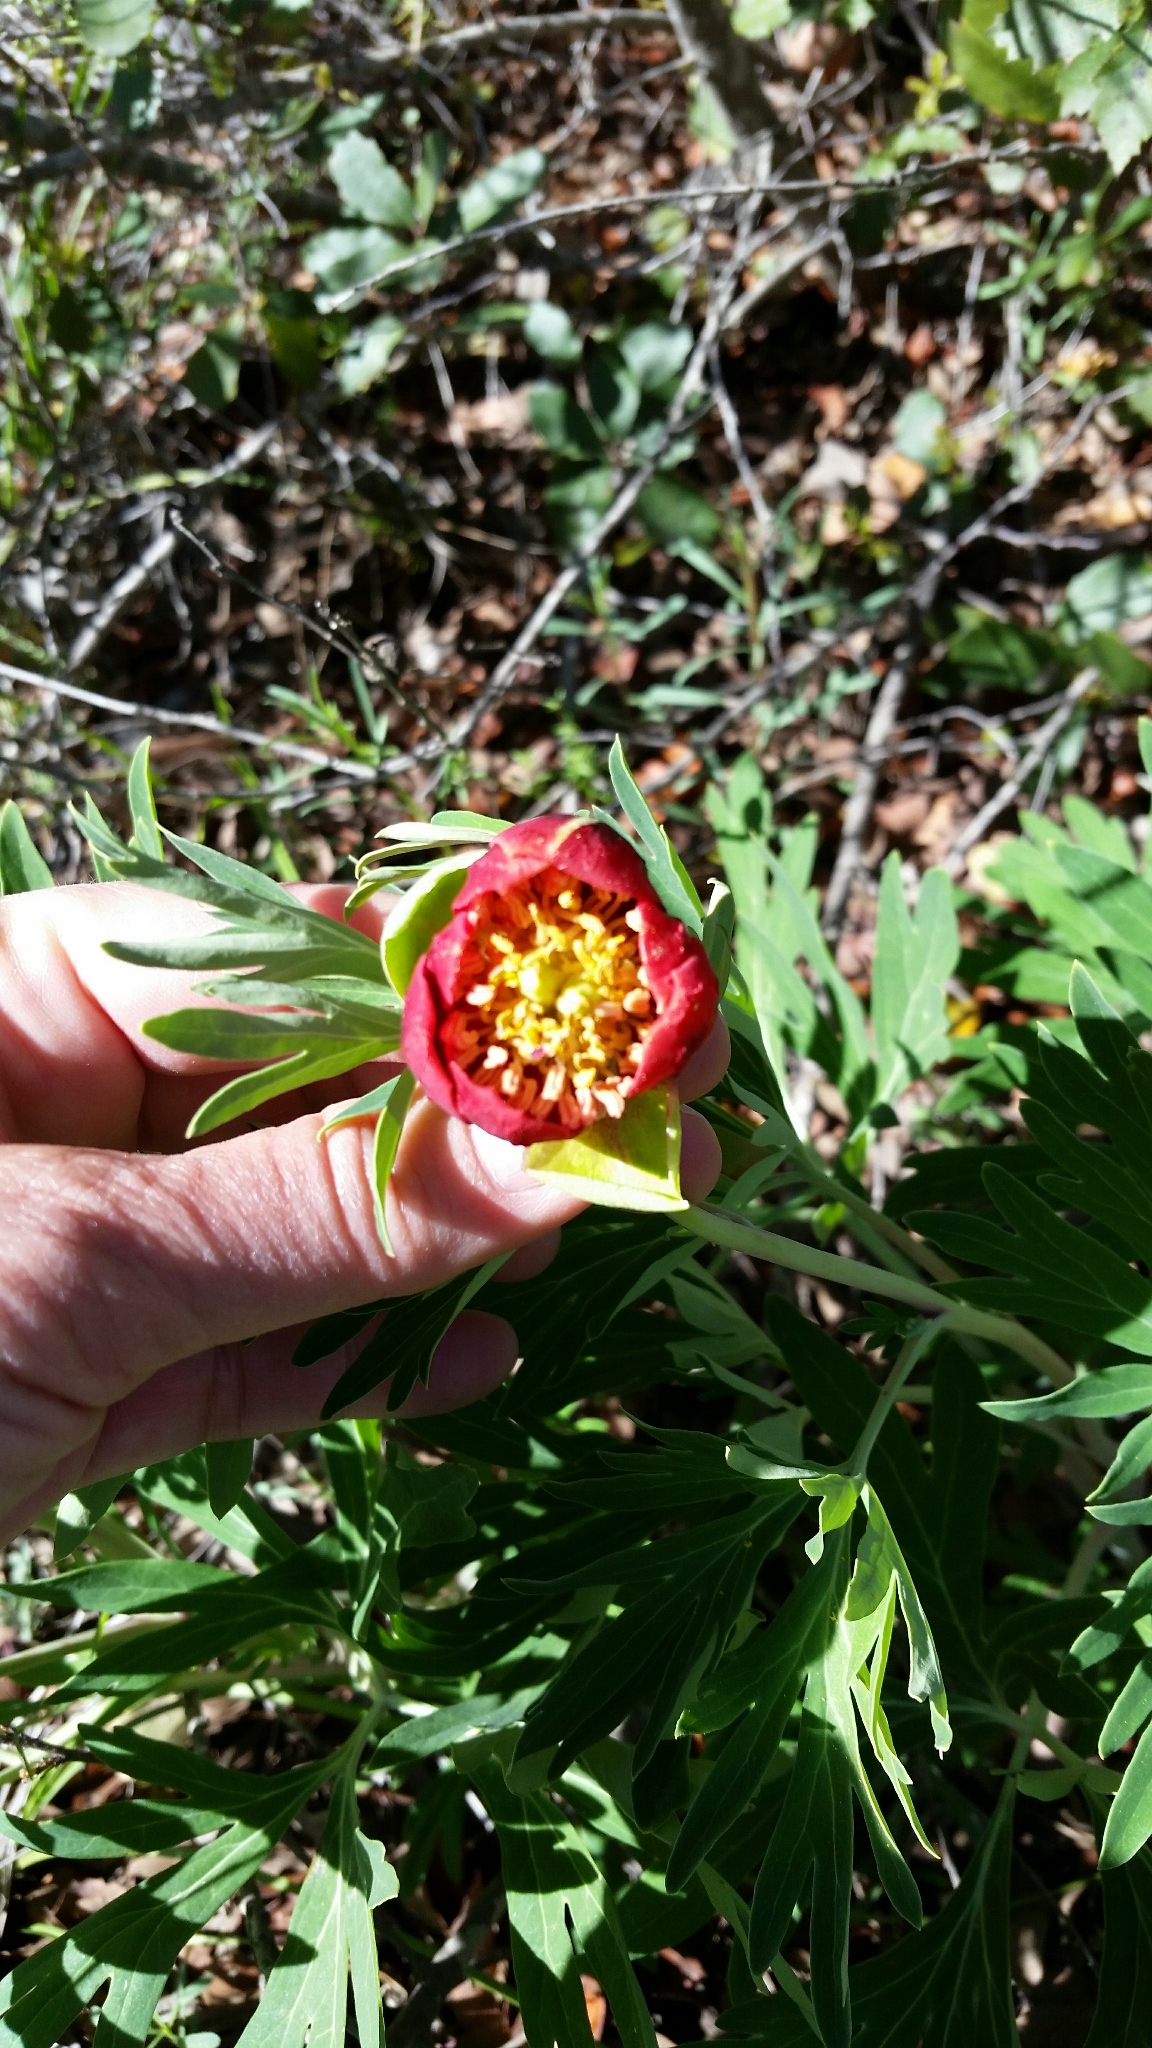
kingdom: Plantae
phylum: Tracheophyta
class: Magnoliopsida
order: Saxifragales
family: Paeoniaceae
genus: Paeonia
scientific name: Paeonia californica
